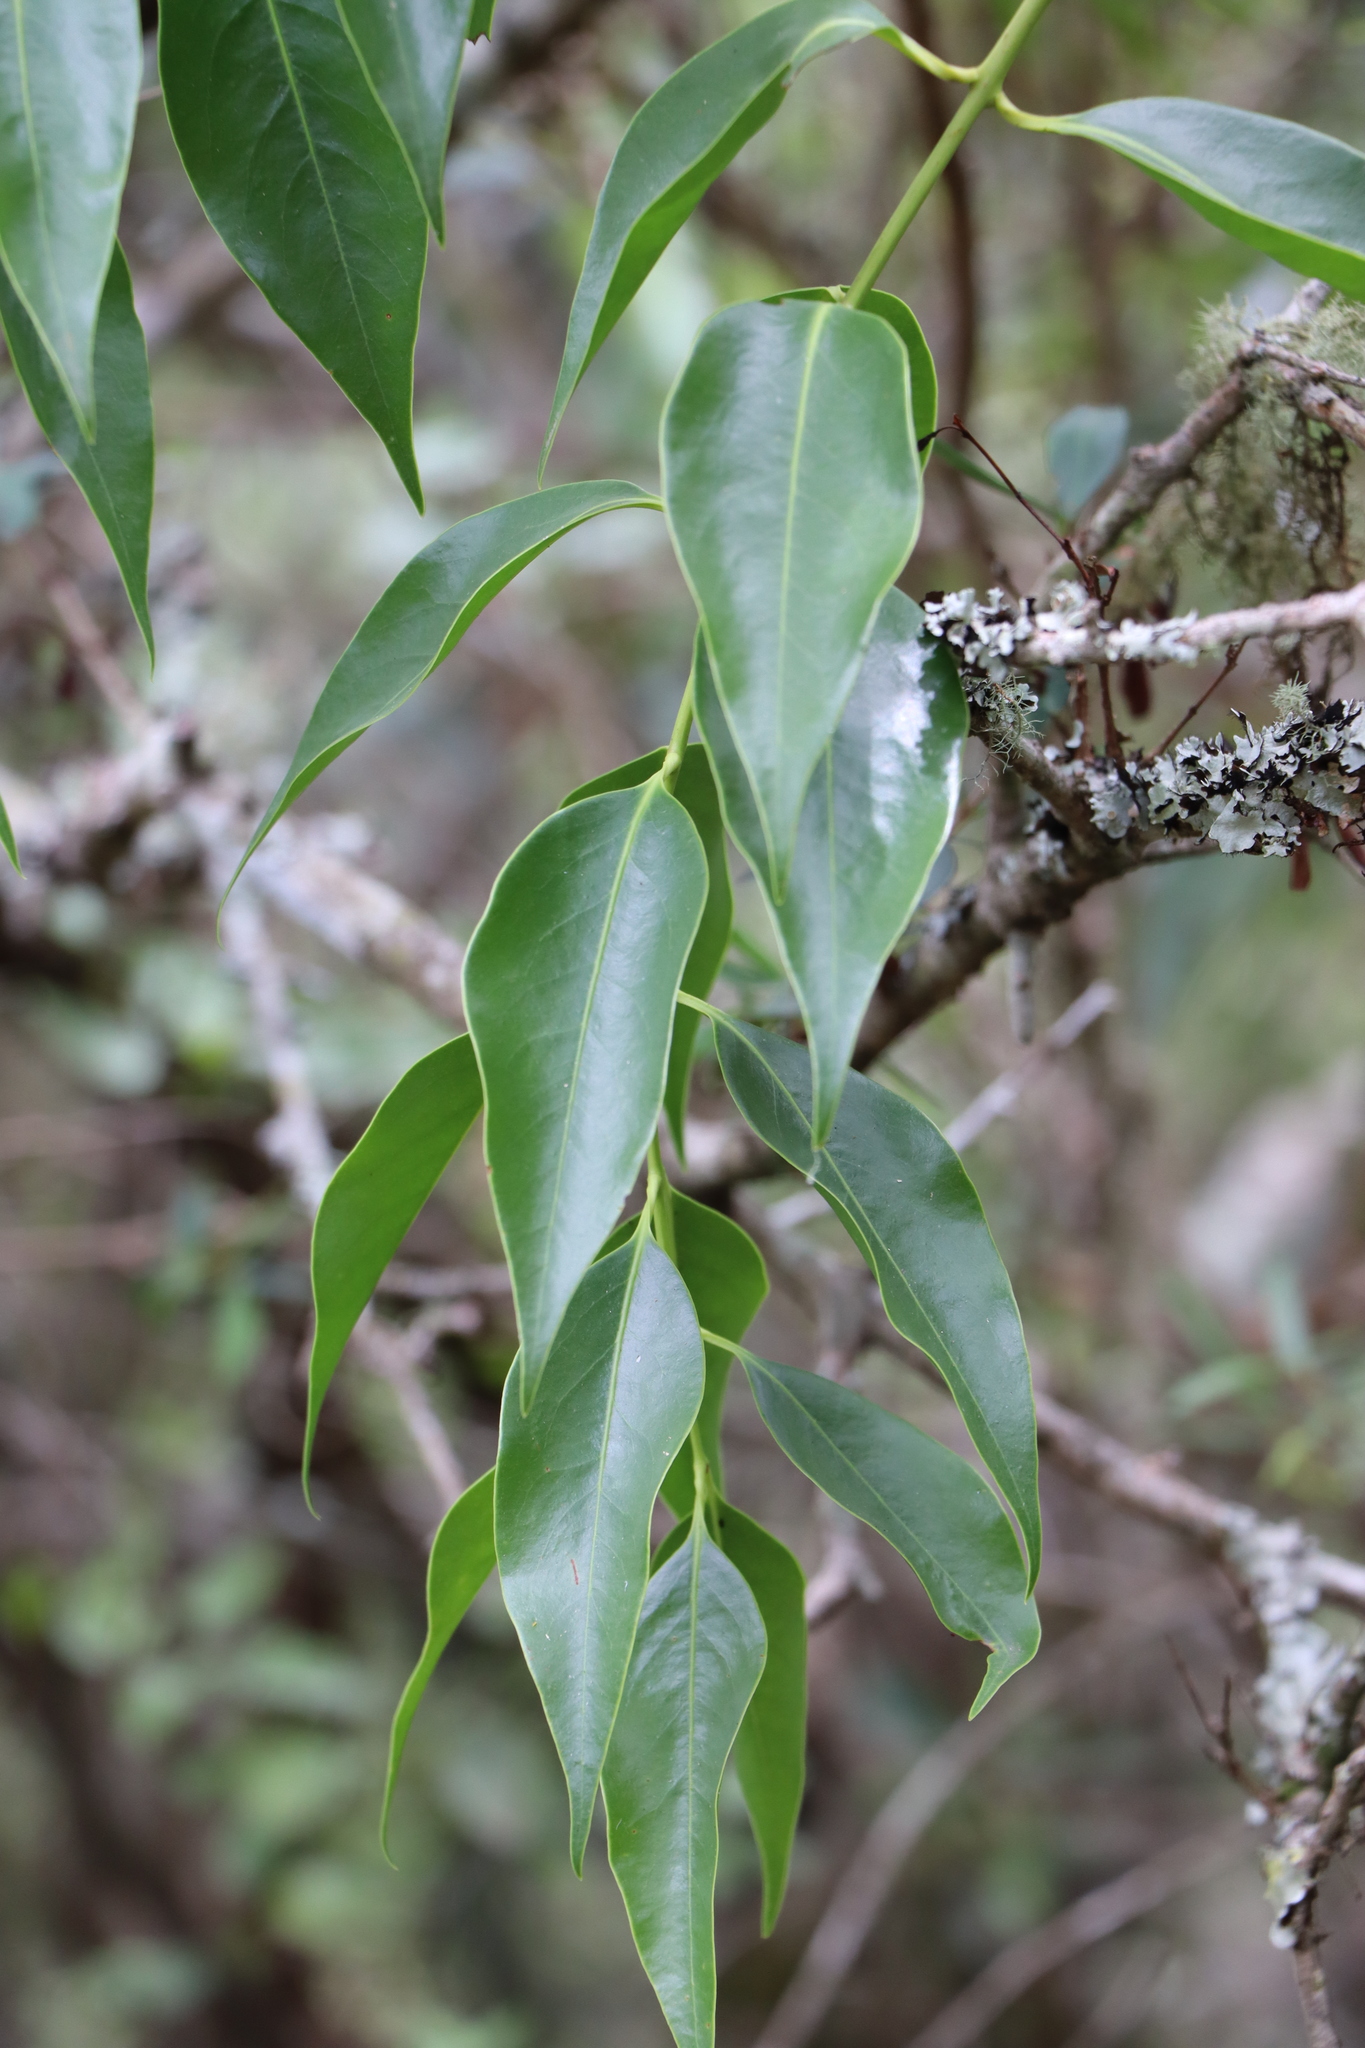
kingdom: Plantae
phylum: Tracheophyta
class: Magnoliopsida
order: Santalales
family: Loranthaceae
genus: Tripodanthus
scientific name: Tripodanthus acutifolius
